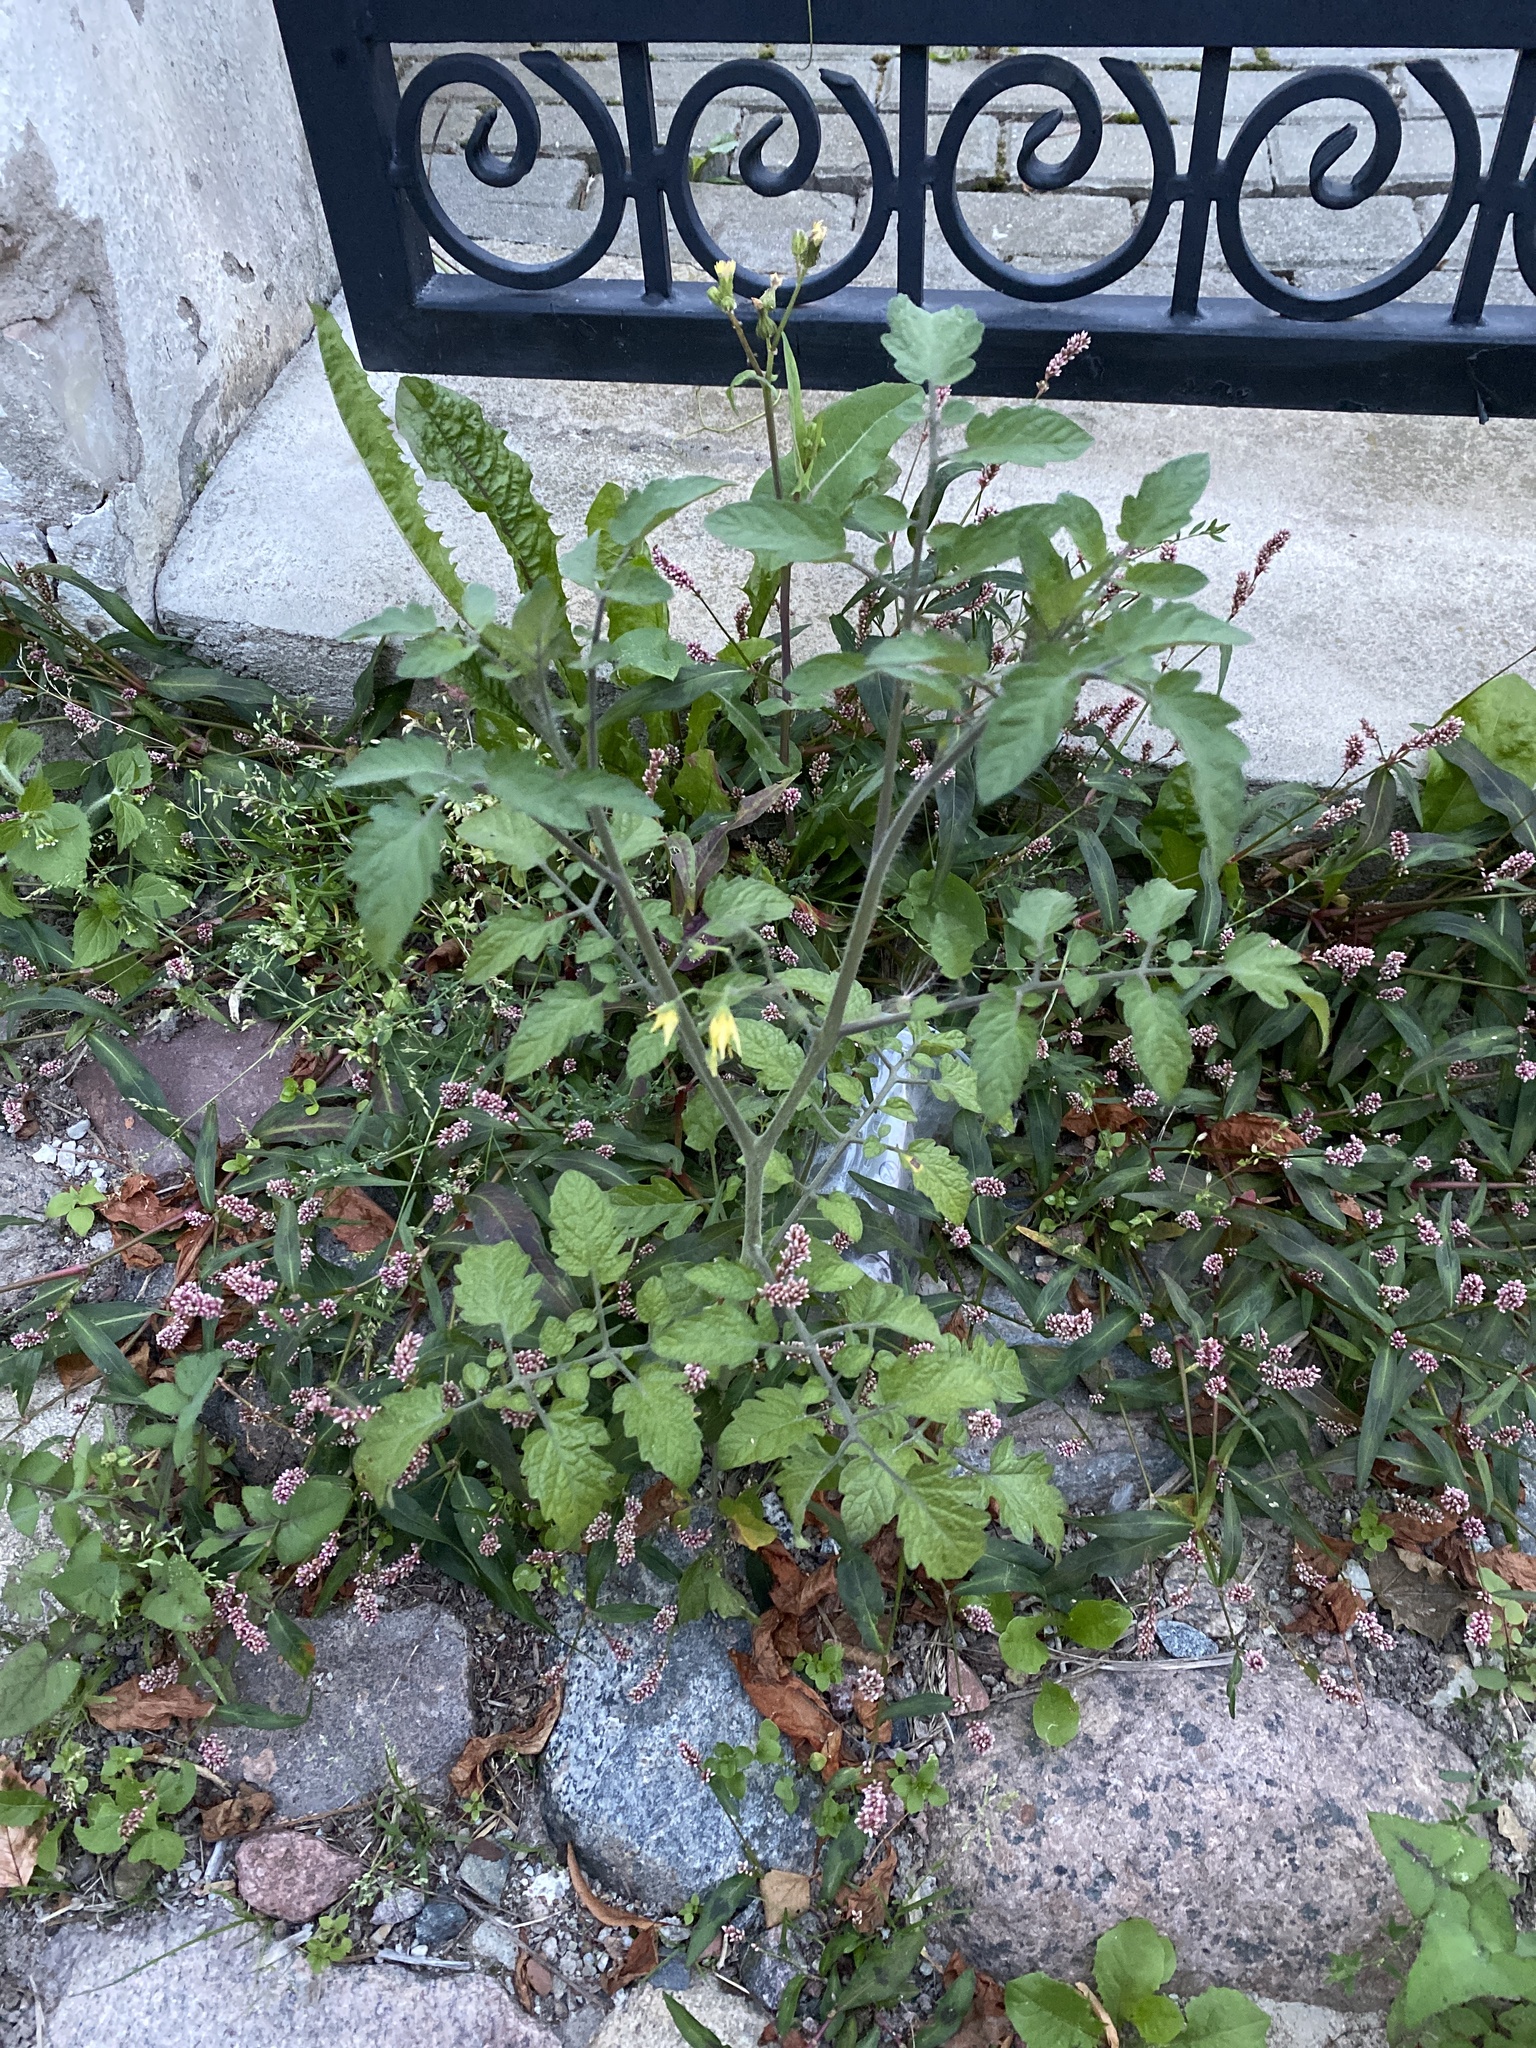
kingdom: Plantae
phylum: Tracheophyta
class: Magnoliopsida
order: Solanales
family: Solanaceae
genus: Solanum
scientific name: Solanum lycopersicum
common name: Garden tomato
